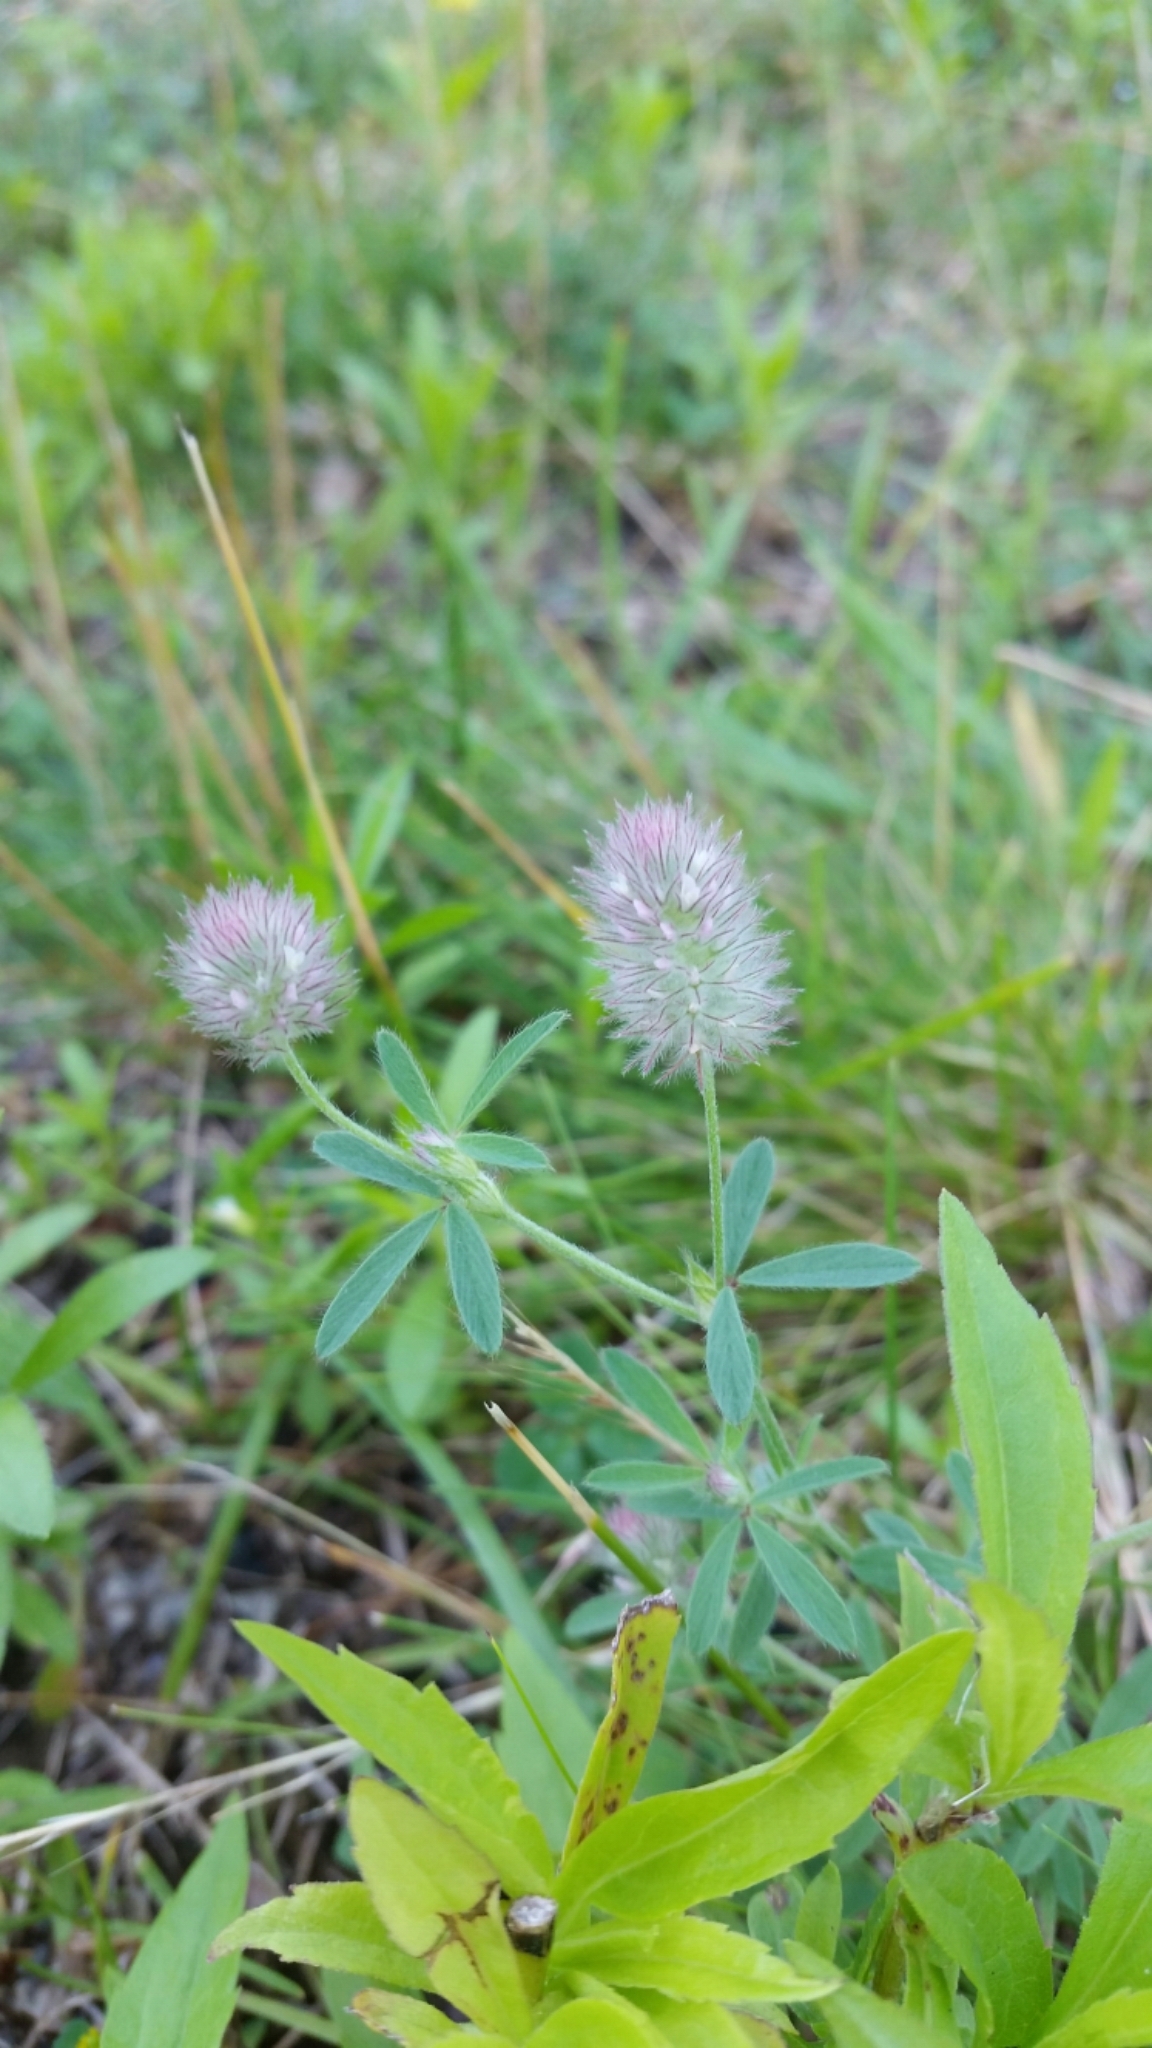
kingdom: Plantae
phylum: Tracheophyta
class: Magnoliopsida
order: Fabales
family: Fabaceae
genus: Trifolium
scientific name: Trifolium arvense
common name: Hare's-foot clover
